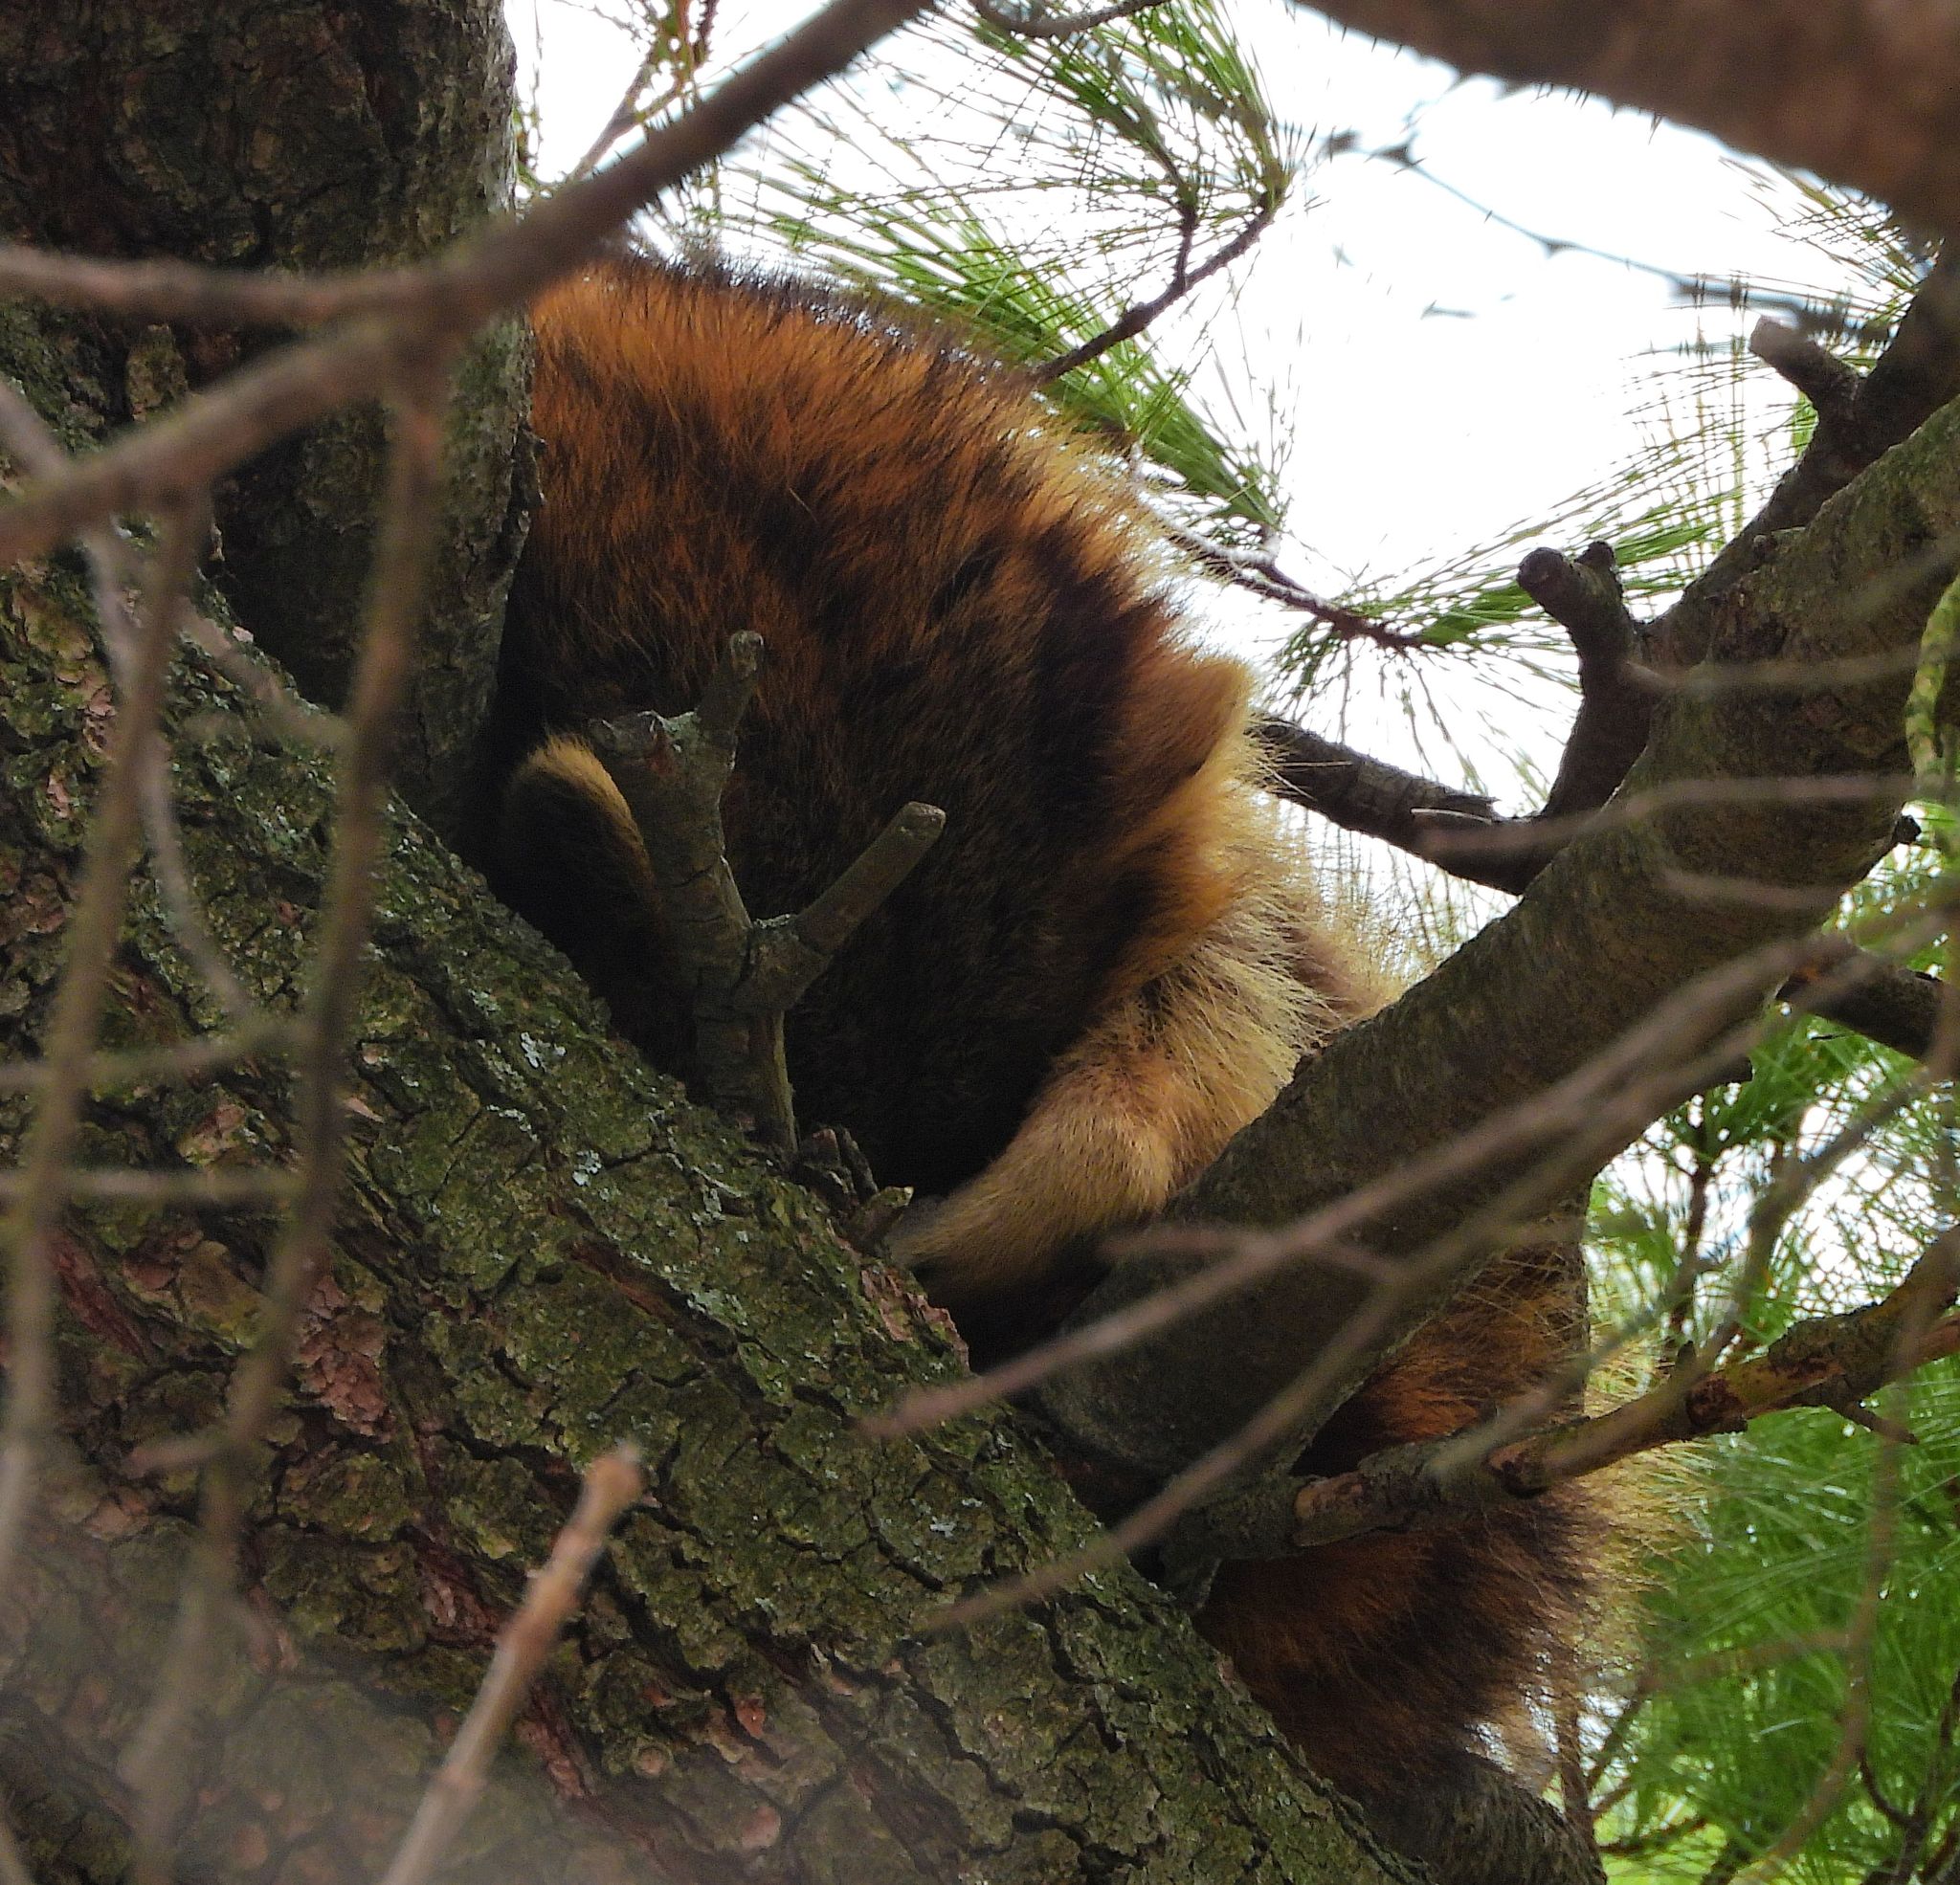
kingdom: Animalia
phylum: Chordata
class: Mammalia
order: Carnivora
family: Procyonidae
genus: Procyon
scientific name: Procyon lotor
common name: Raccoon
